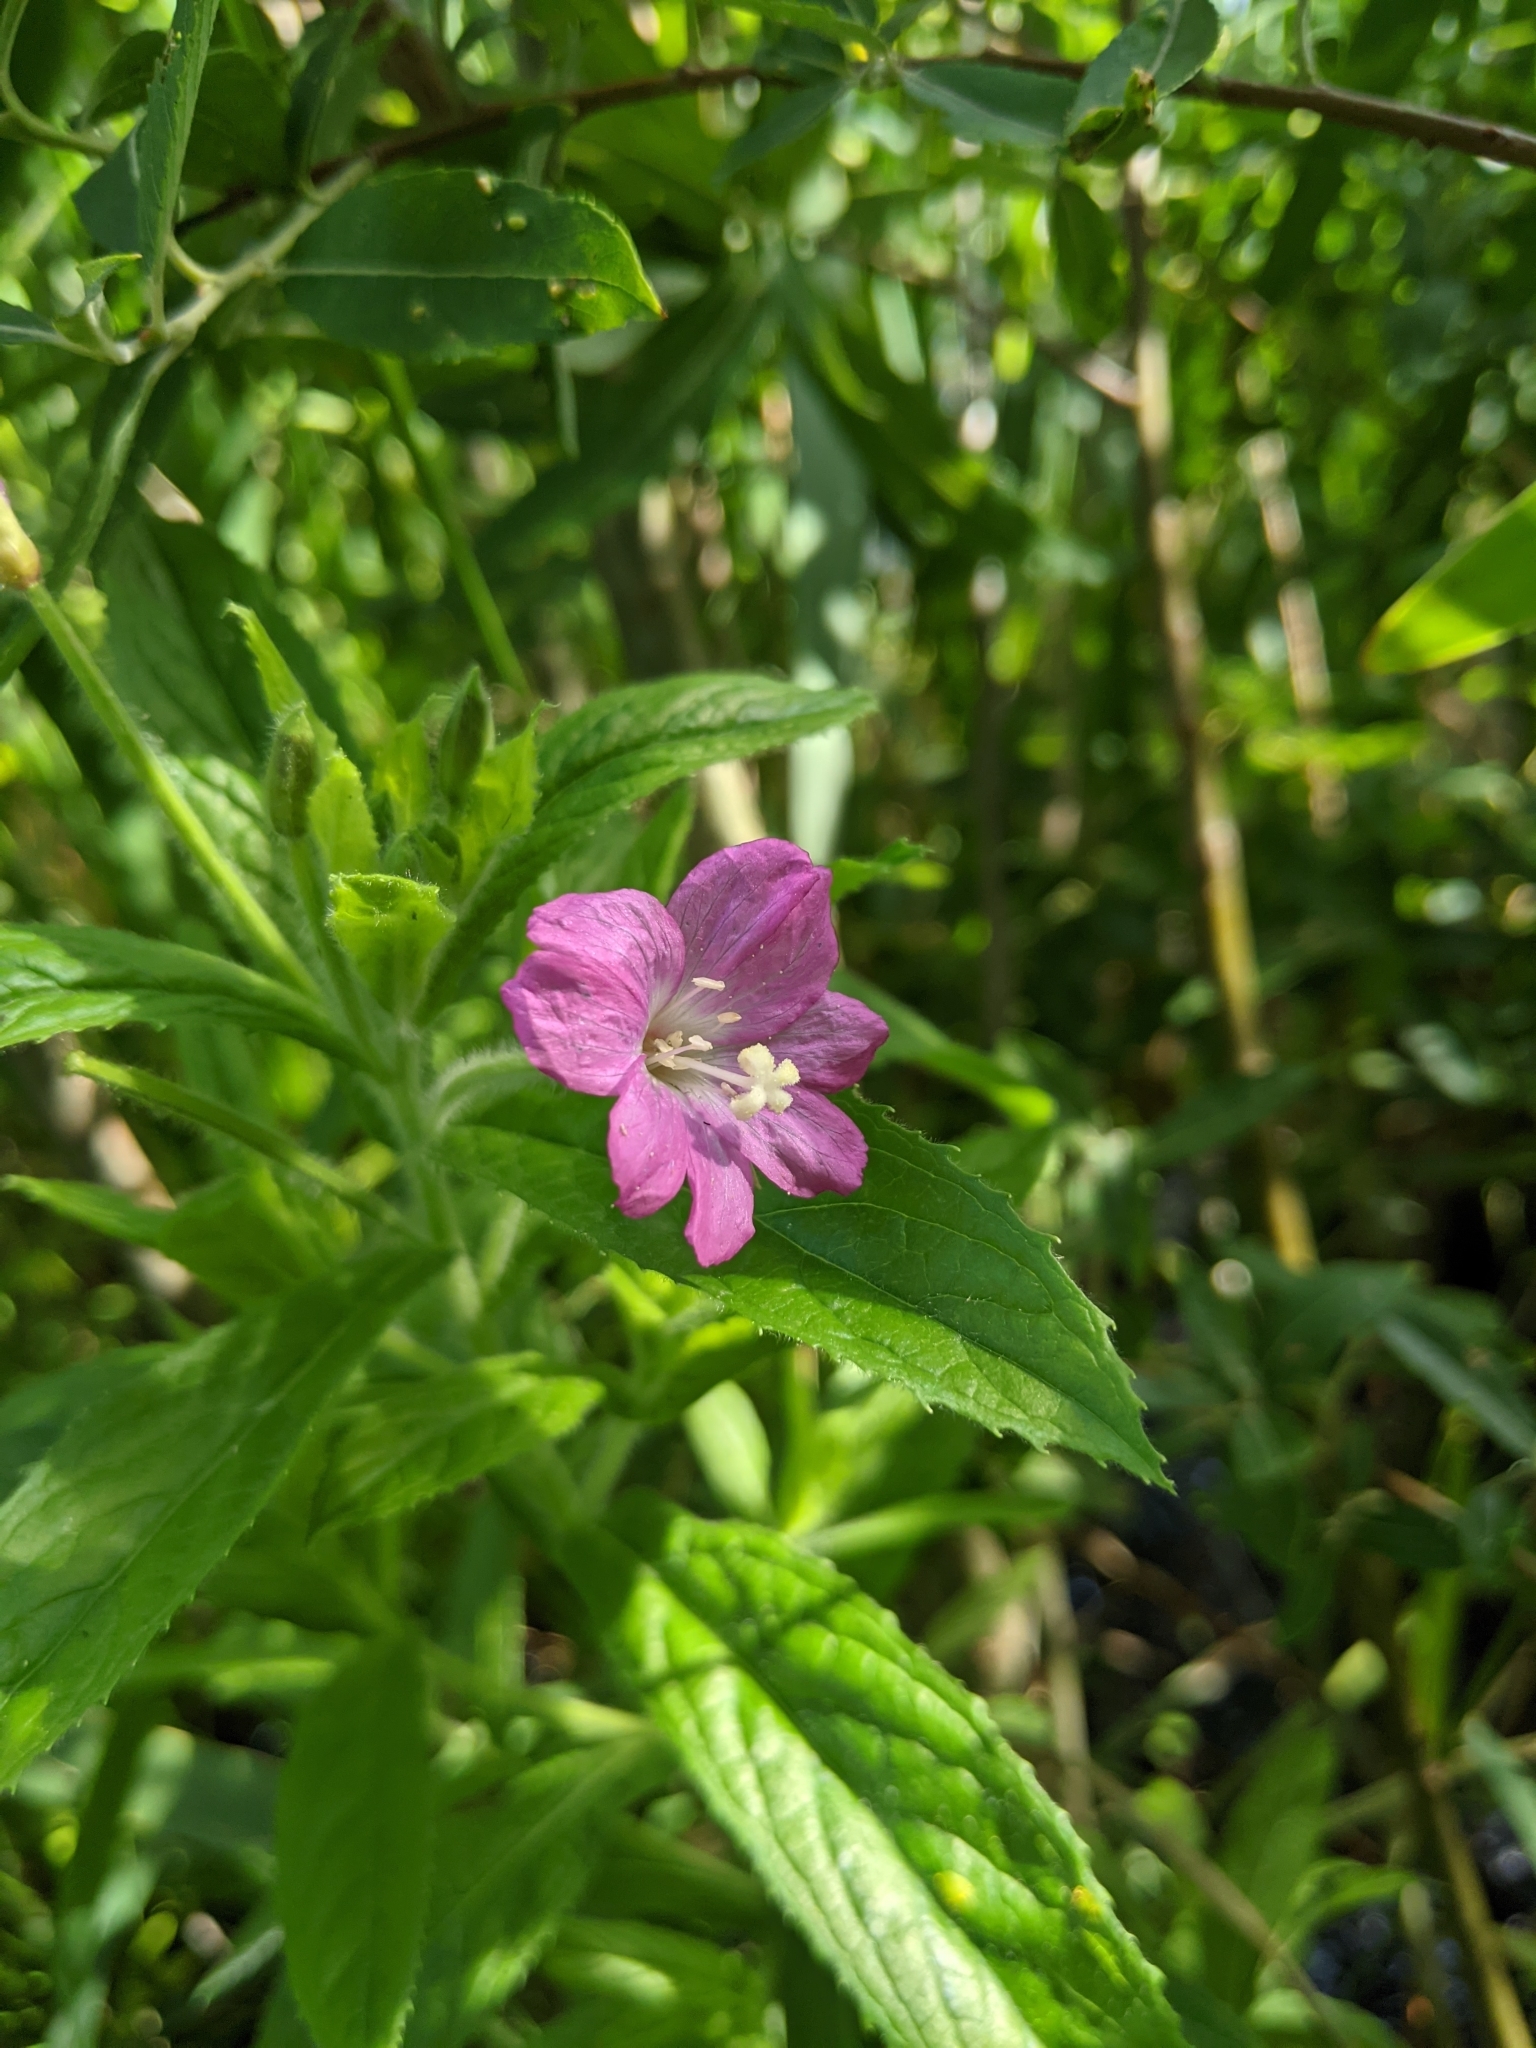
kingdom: Plantae
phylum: Tracheophyta
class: Magnoliopsida
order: Myrtales
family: Onagraceae
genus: Epilobium
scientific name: Epilobium hirsutum
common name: Great willowherb
